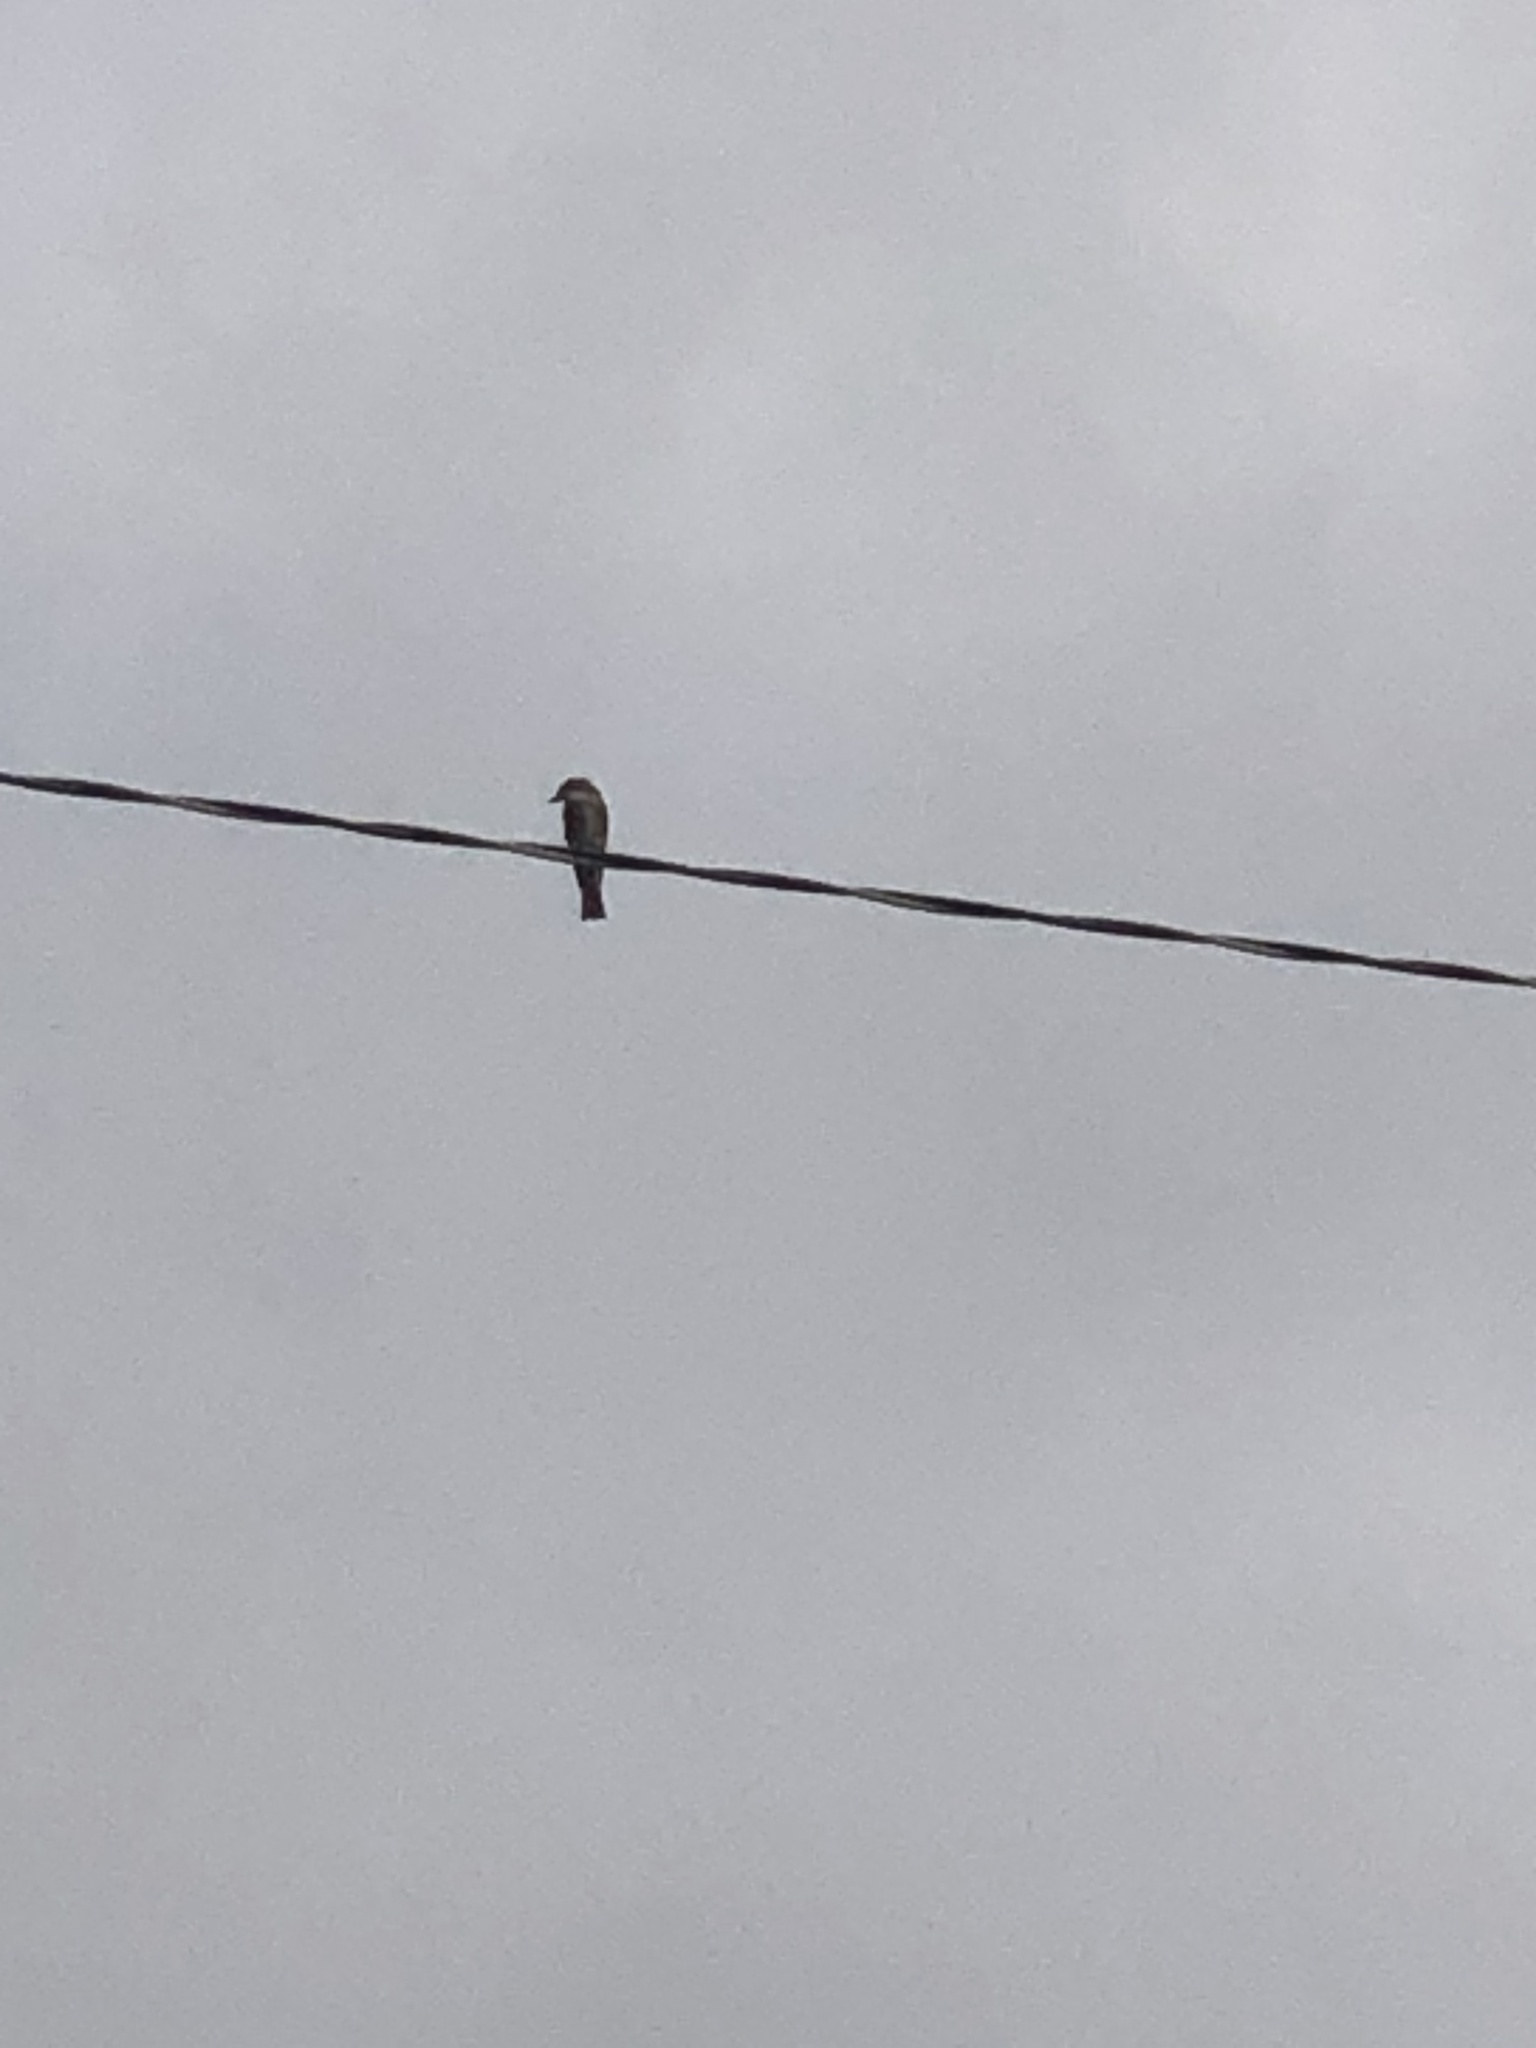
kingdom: Animalia
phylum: Chordata
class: Aves
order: Passeriformes
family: Tyrannidae
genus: Contopus
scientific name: Contopus sordidulus
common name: Western wood-pewee
